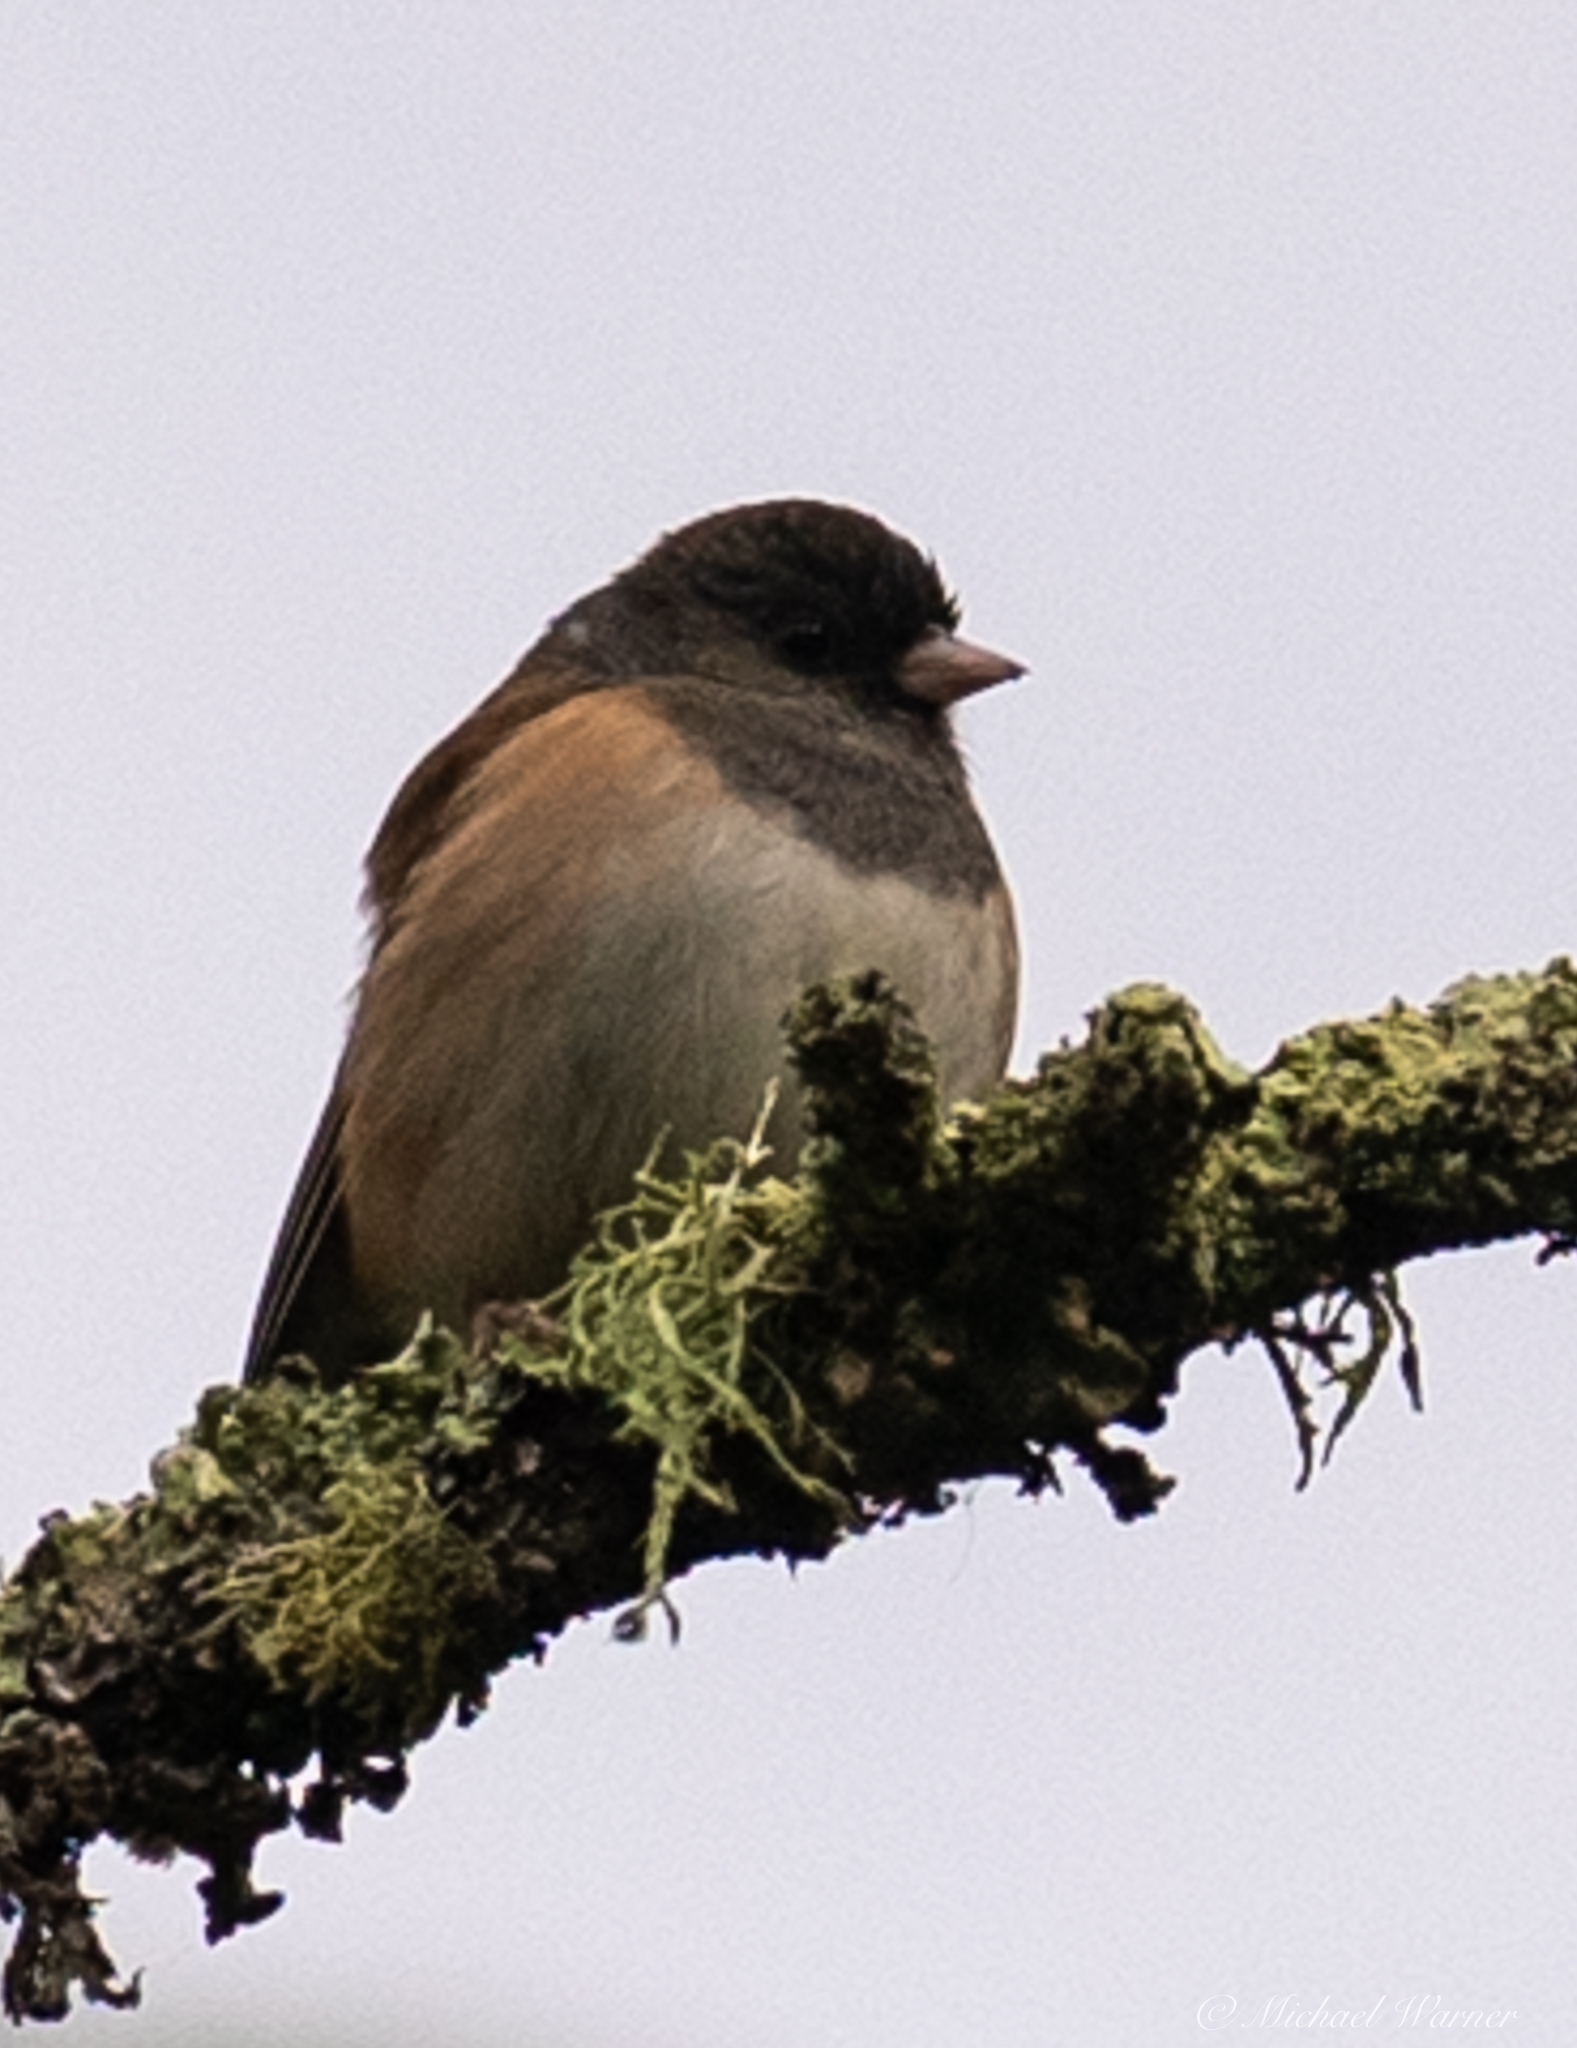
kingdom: Animalia
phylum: Chordata
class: Aves
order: Passeriformes
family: Passerellidae
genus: Junco
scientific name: Junco hyemalis
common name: Dark-eyed junco
